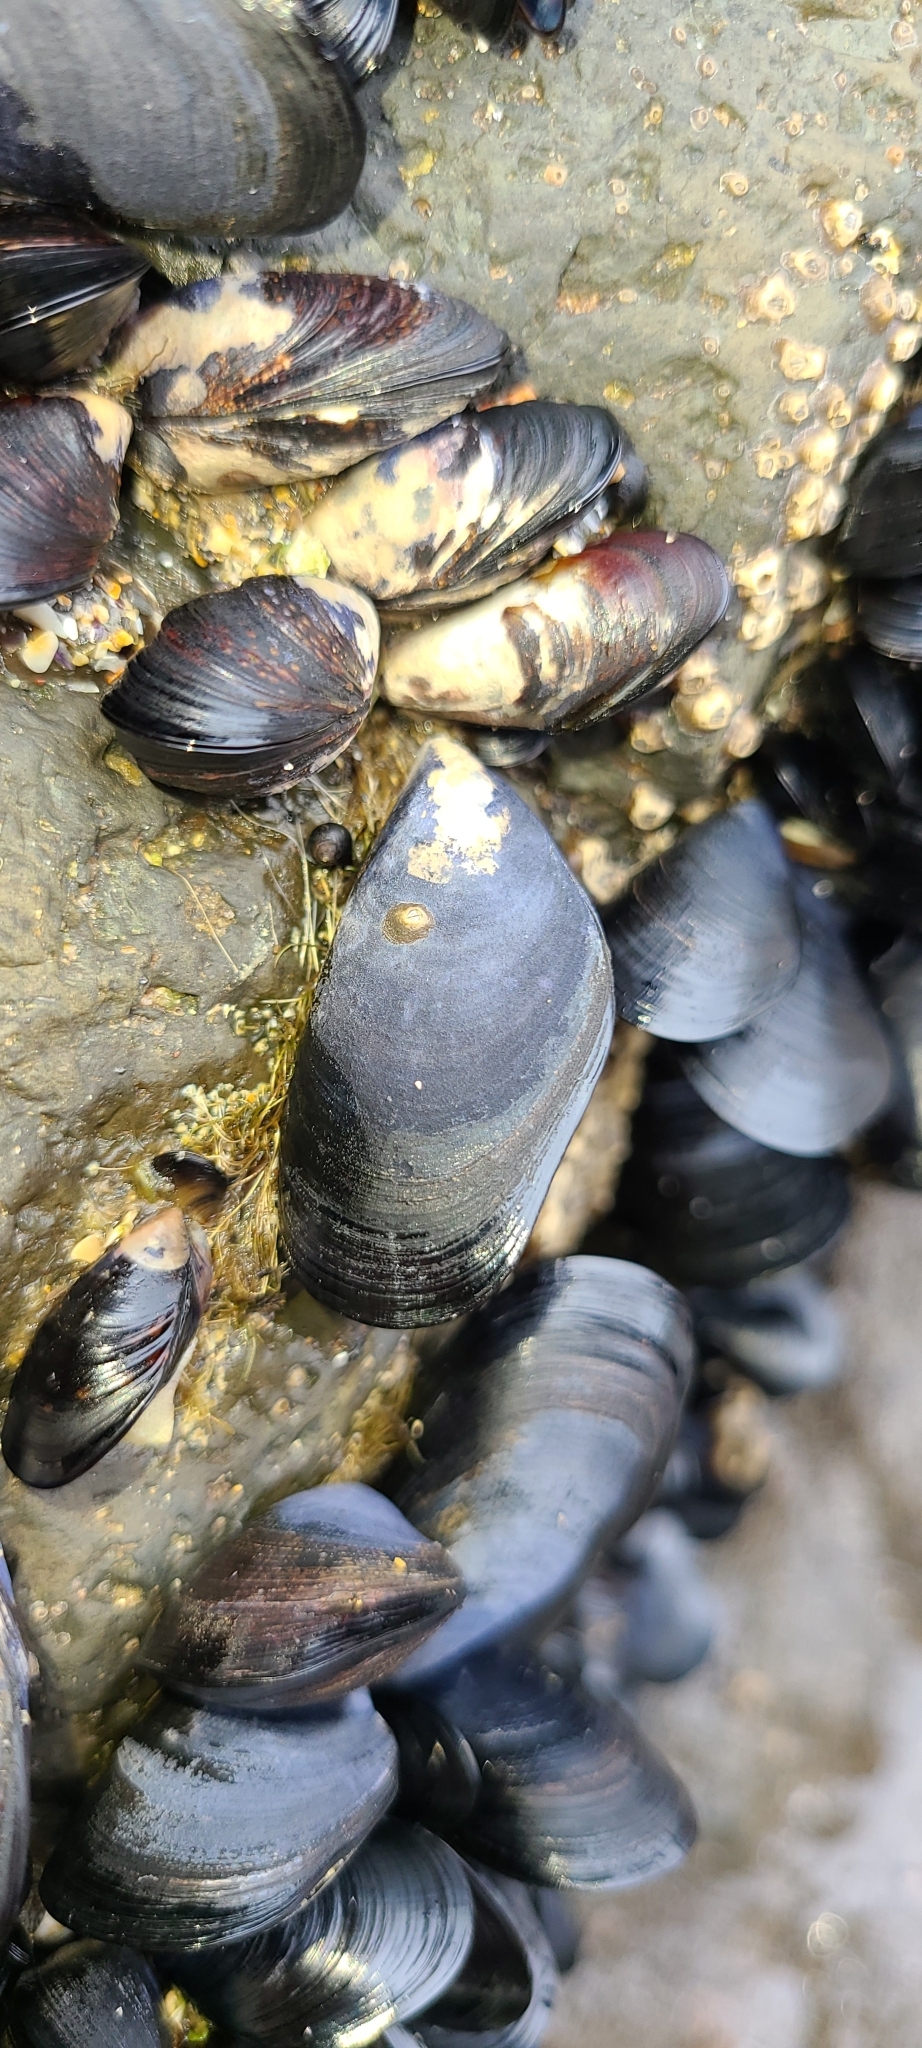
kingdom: Animalia
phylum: Mollusca
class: Bivalvia
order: Mytilida
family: Mytilidae
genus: Mytilus
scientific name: Mytilus planulatus
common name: Australian mussel
